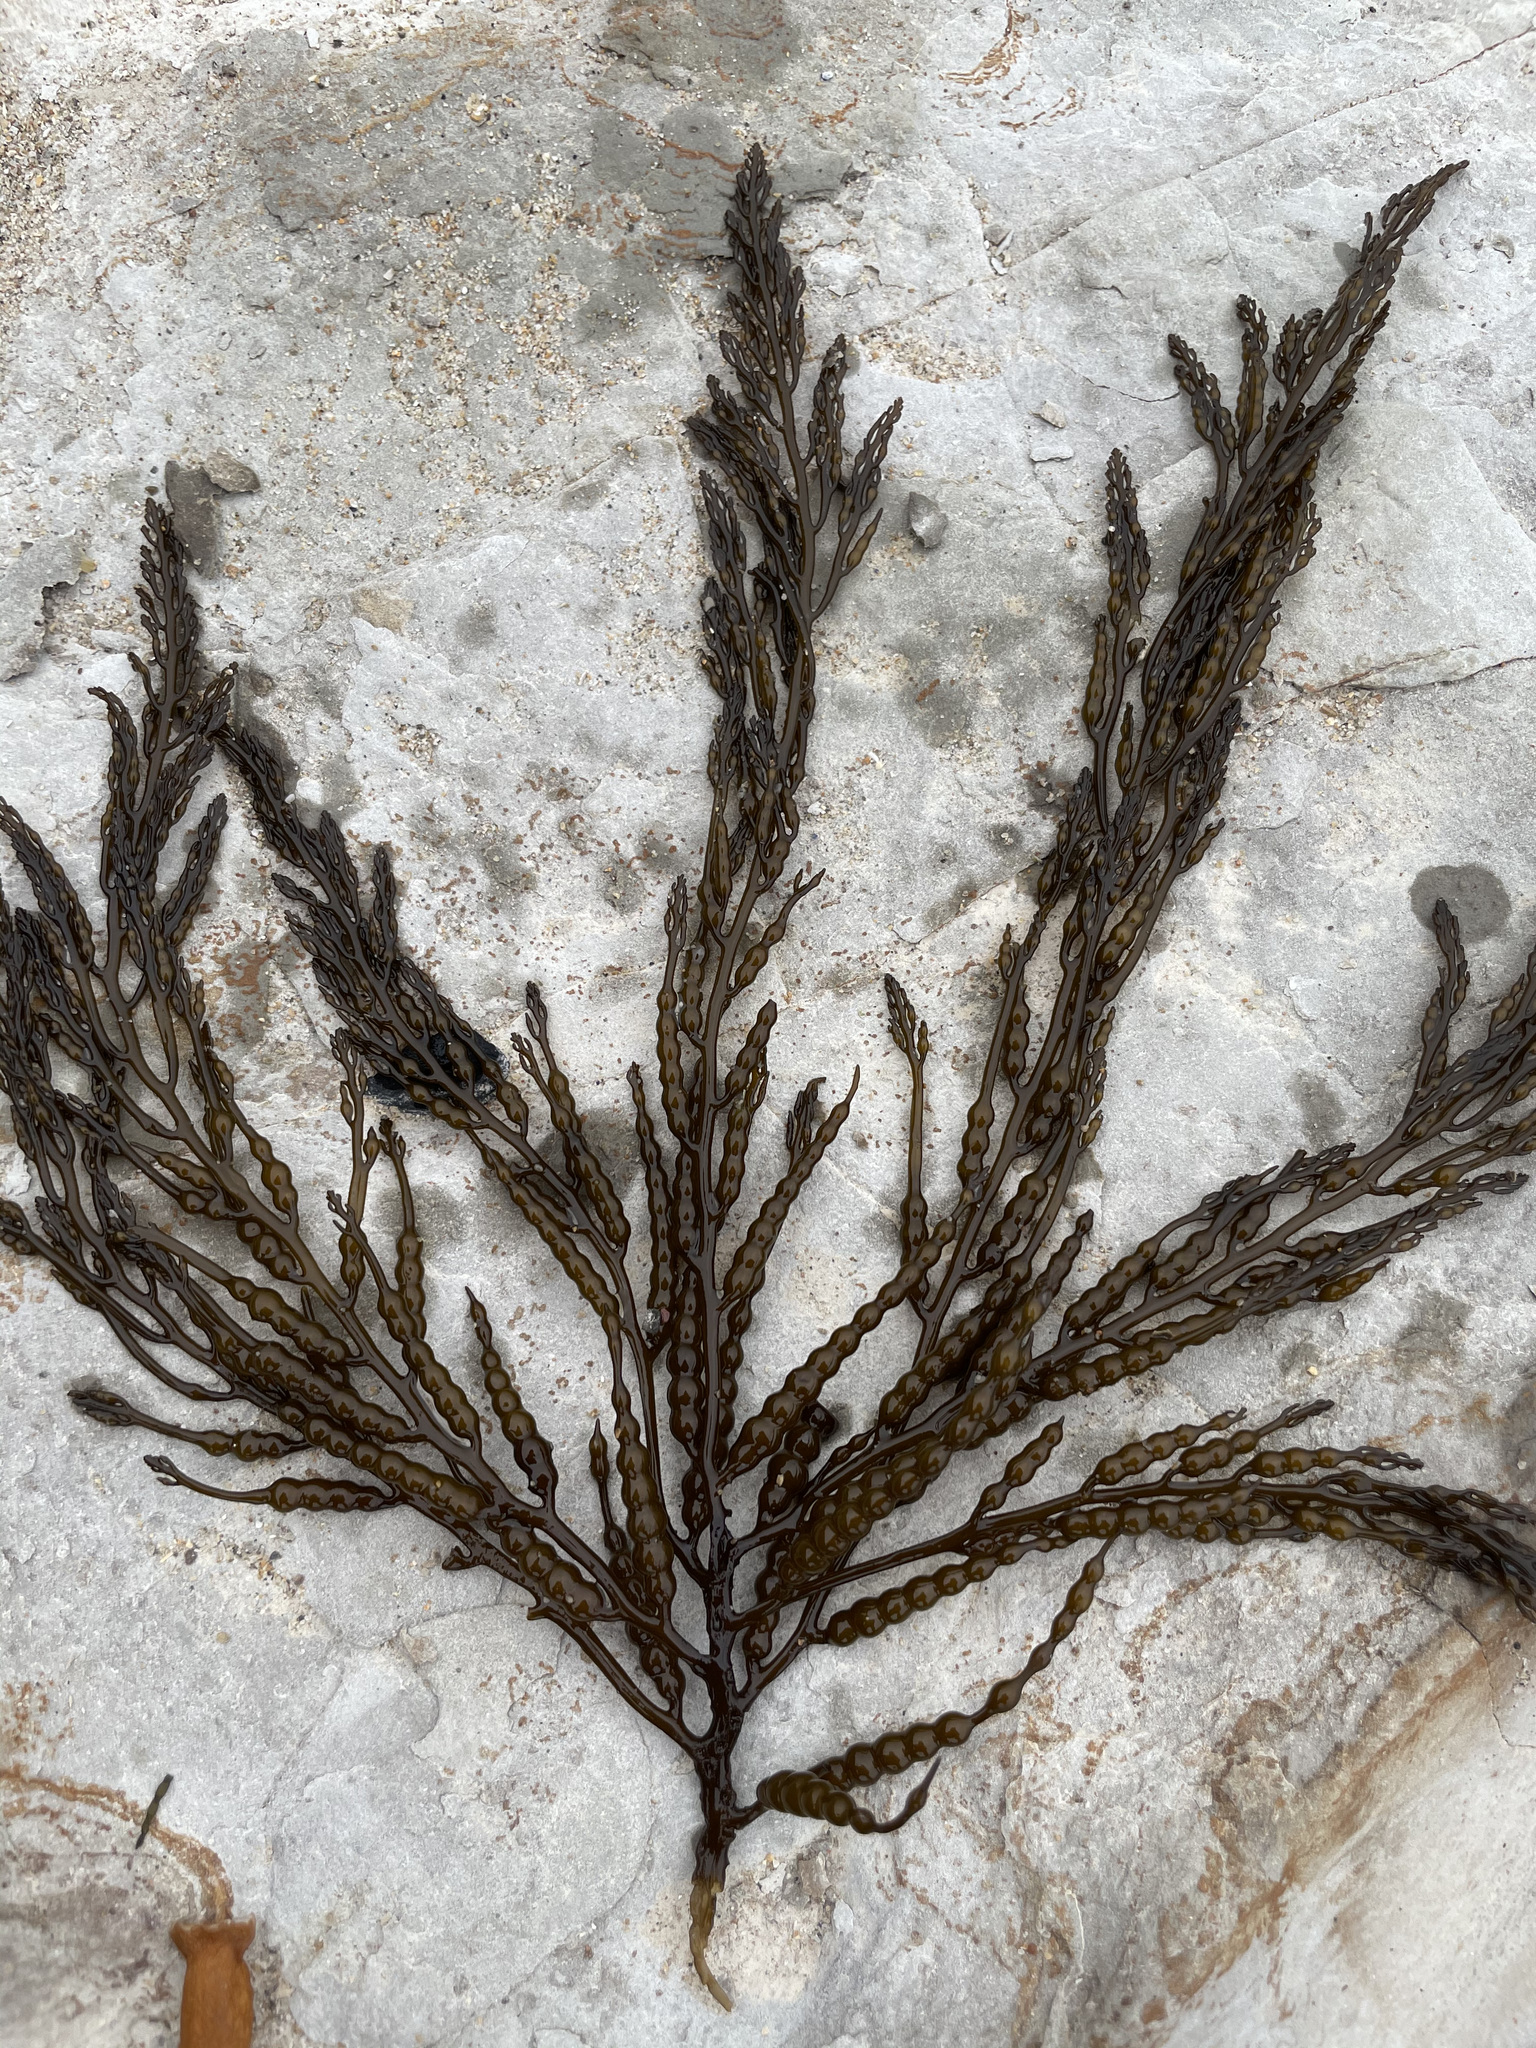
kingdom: Chromista
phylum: Ochrophyta
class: Phaeophyceae
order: Fucales
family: Sargassaceae
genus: Stephanocystis
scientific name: Stephanocystis
